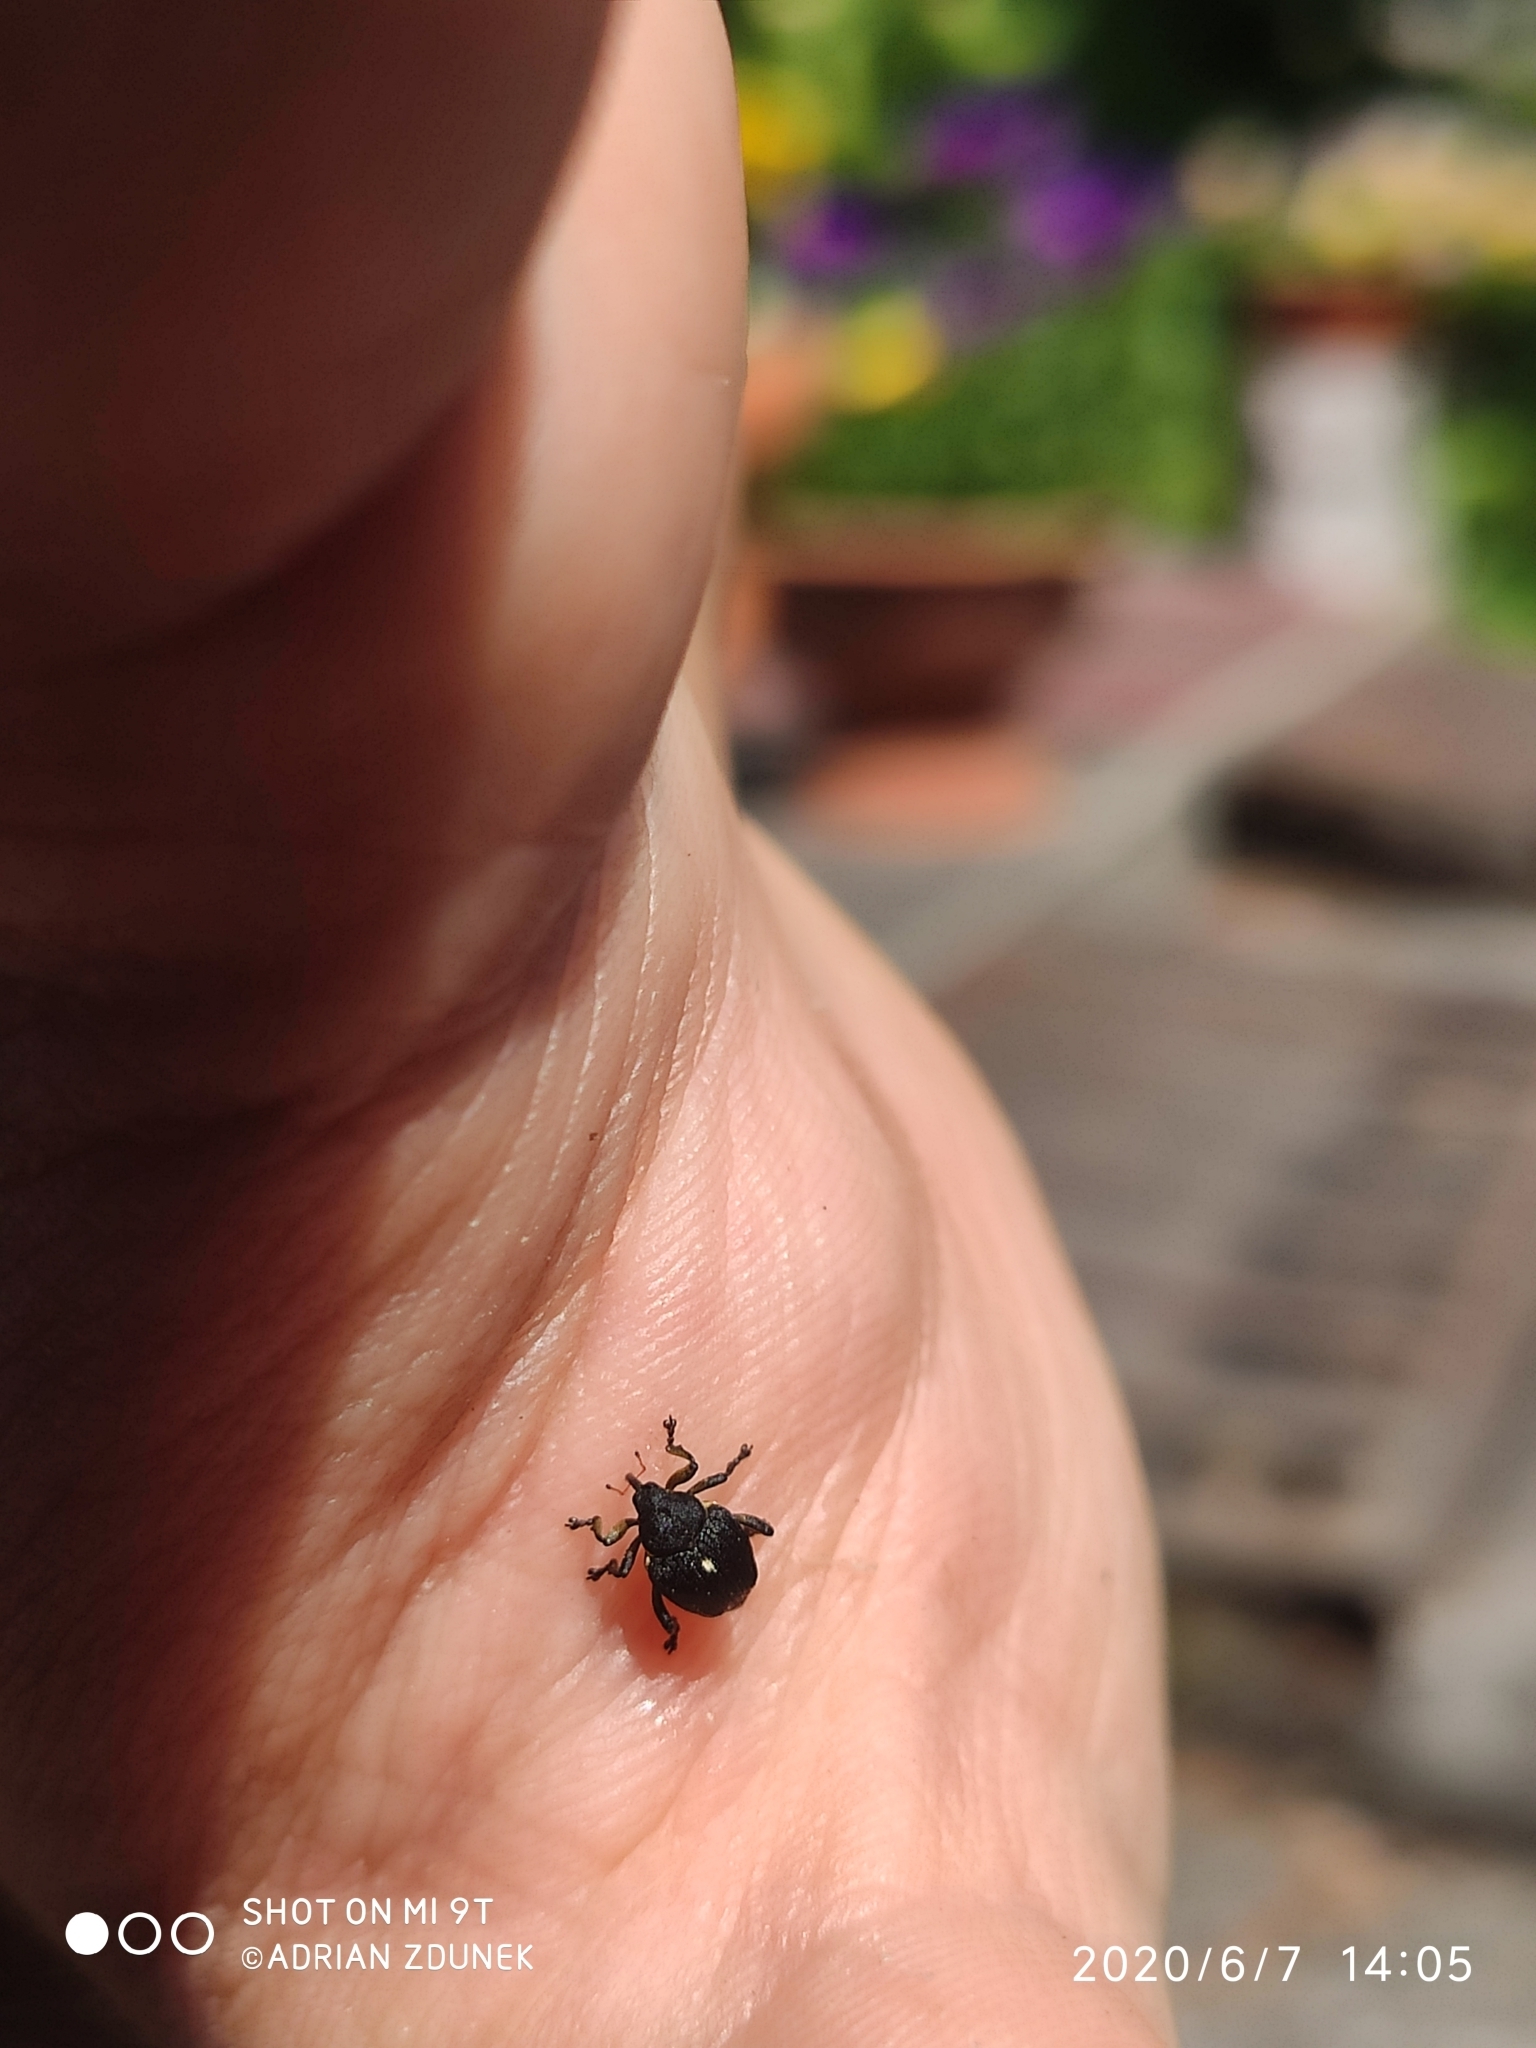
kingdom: Animalia
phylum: Arthropoda
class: Insecta
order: Coleoptera
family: Curculionidae
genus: Mononychus
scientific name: Mononychus punctumalbum
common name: Iris weevil
